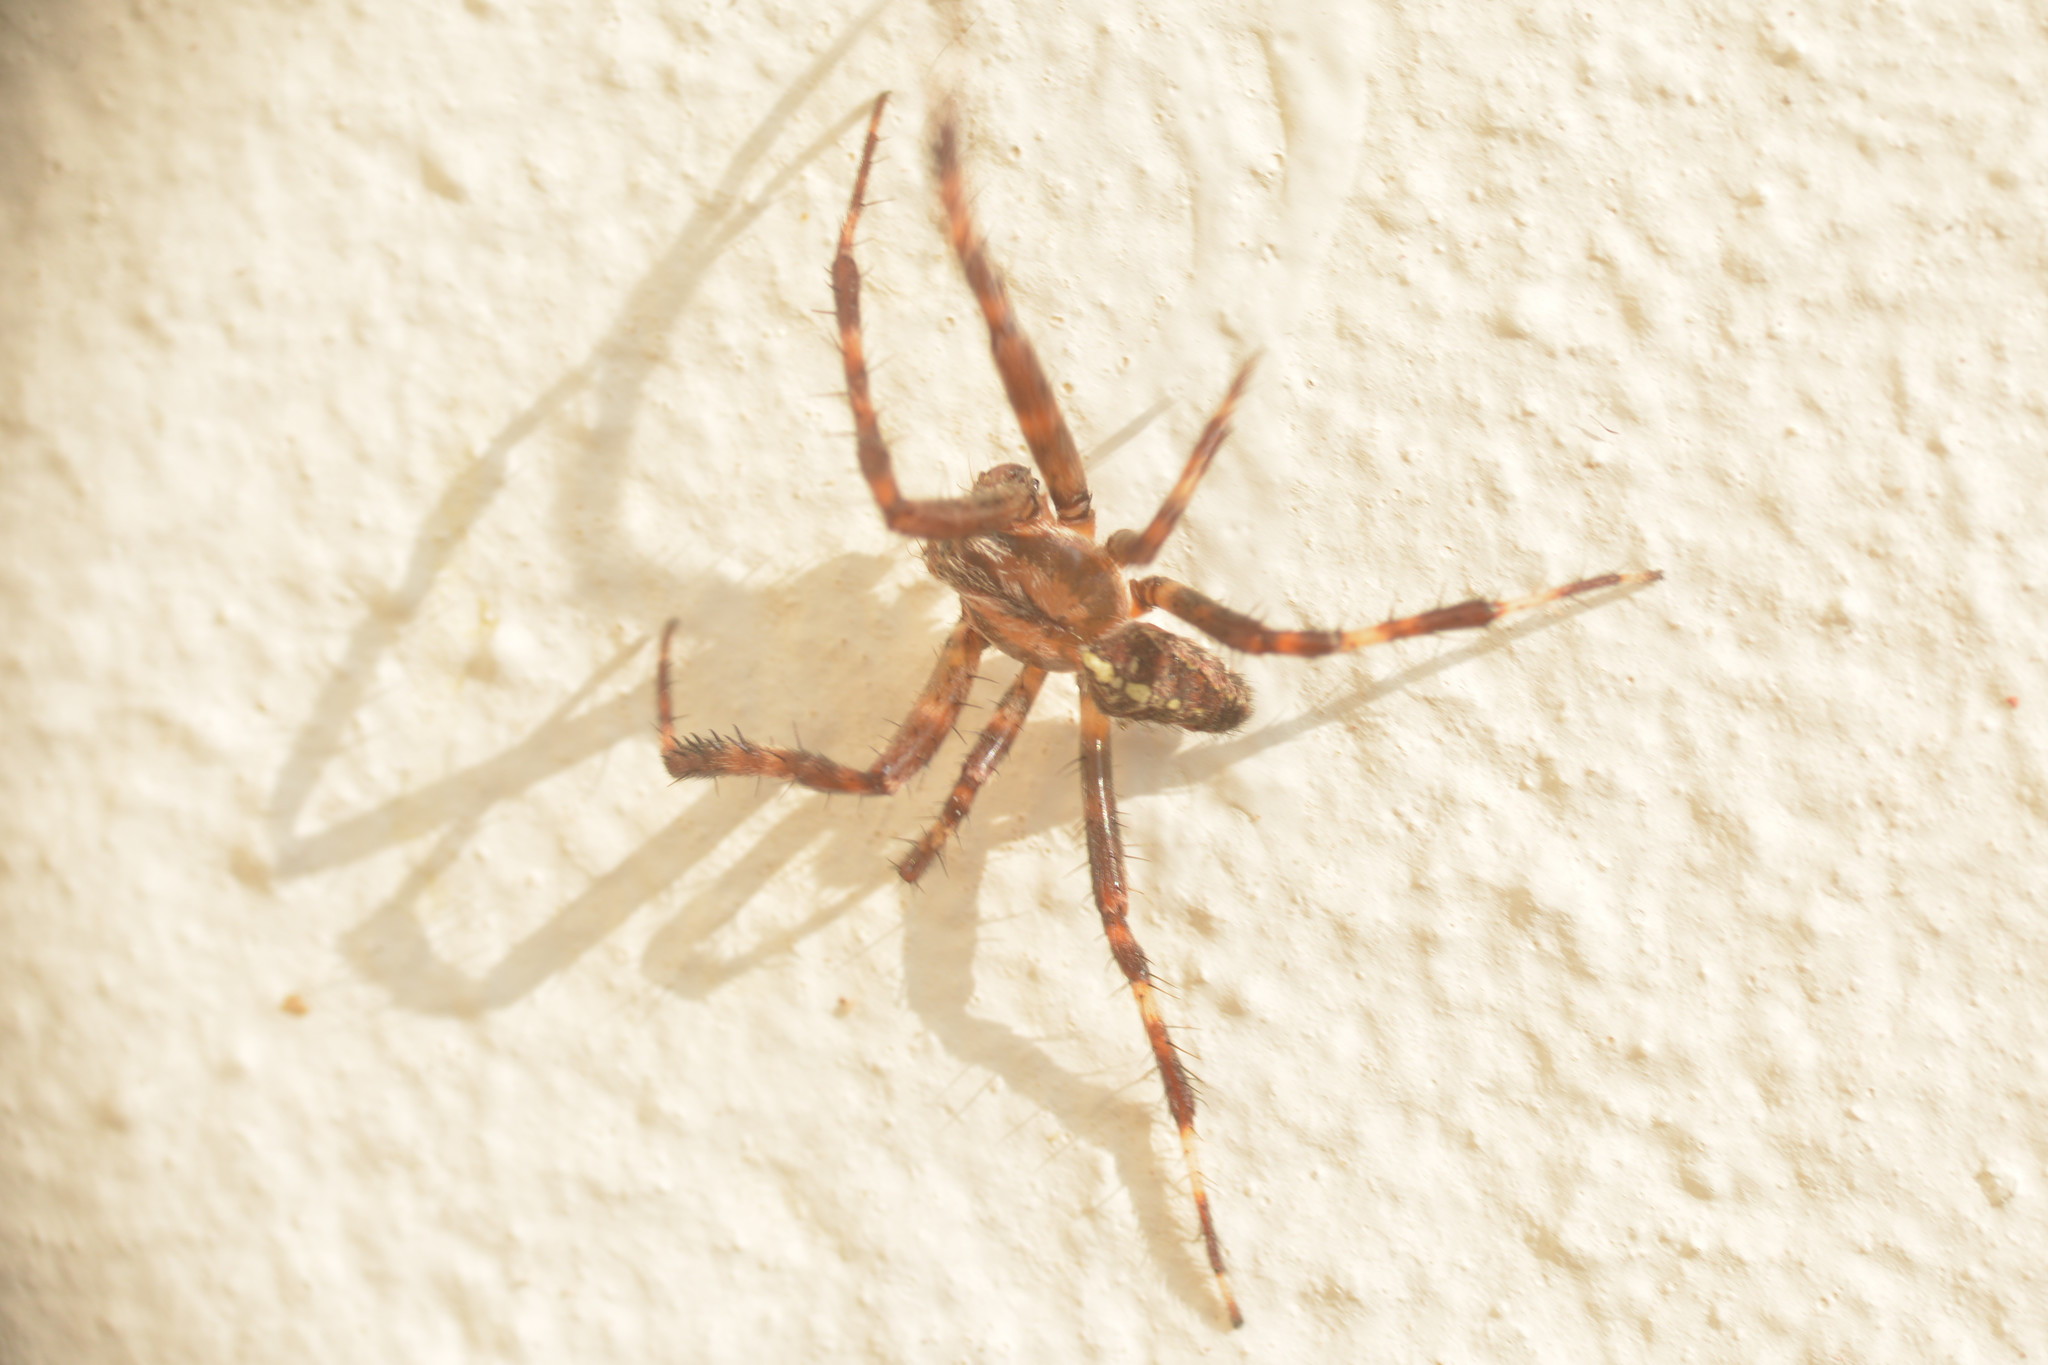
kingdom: Animalia
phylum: Arthropoda
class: Arachnida
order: Araneae
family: Araneidae
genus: Araneus
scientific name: Araneus diadematus
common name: Cross orbweaver
